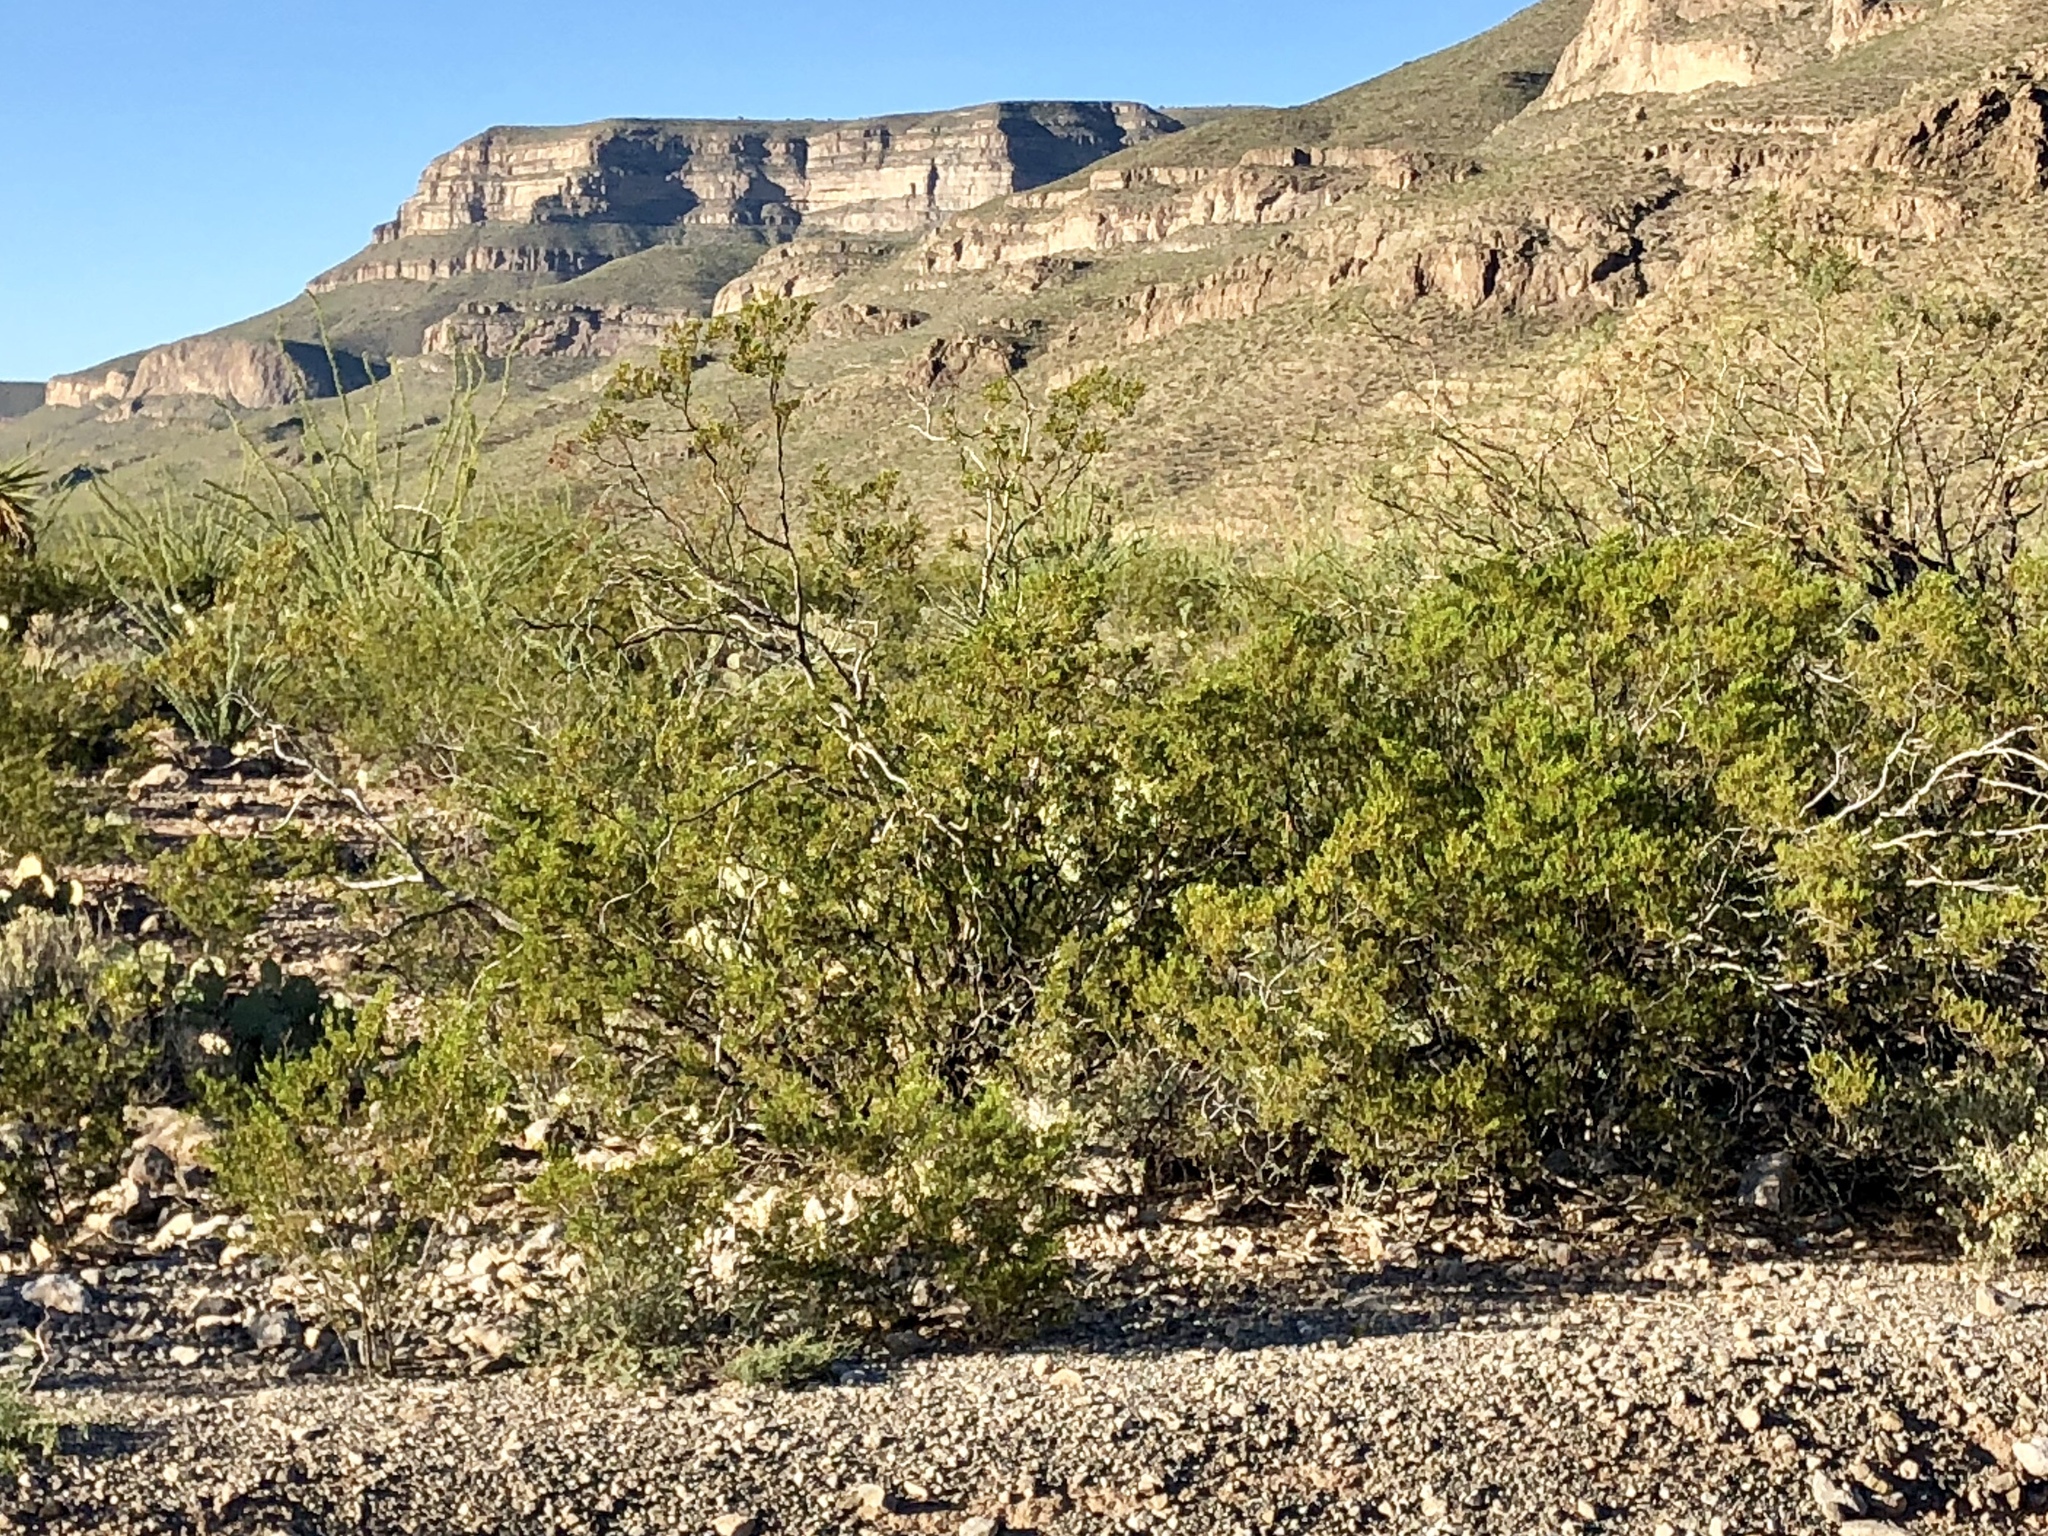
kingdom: Plantae
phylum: Tracheophyta
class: Magnoliopsida
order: Zygophyllales
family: Zygophyllaceae
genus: Larrea
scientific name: Larrea tridentata
